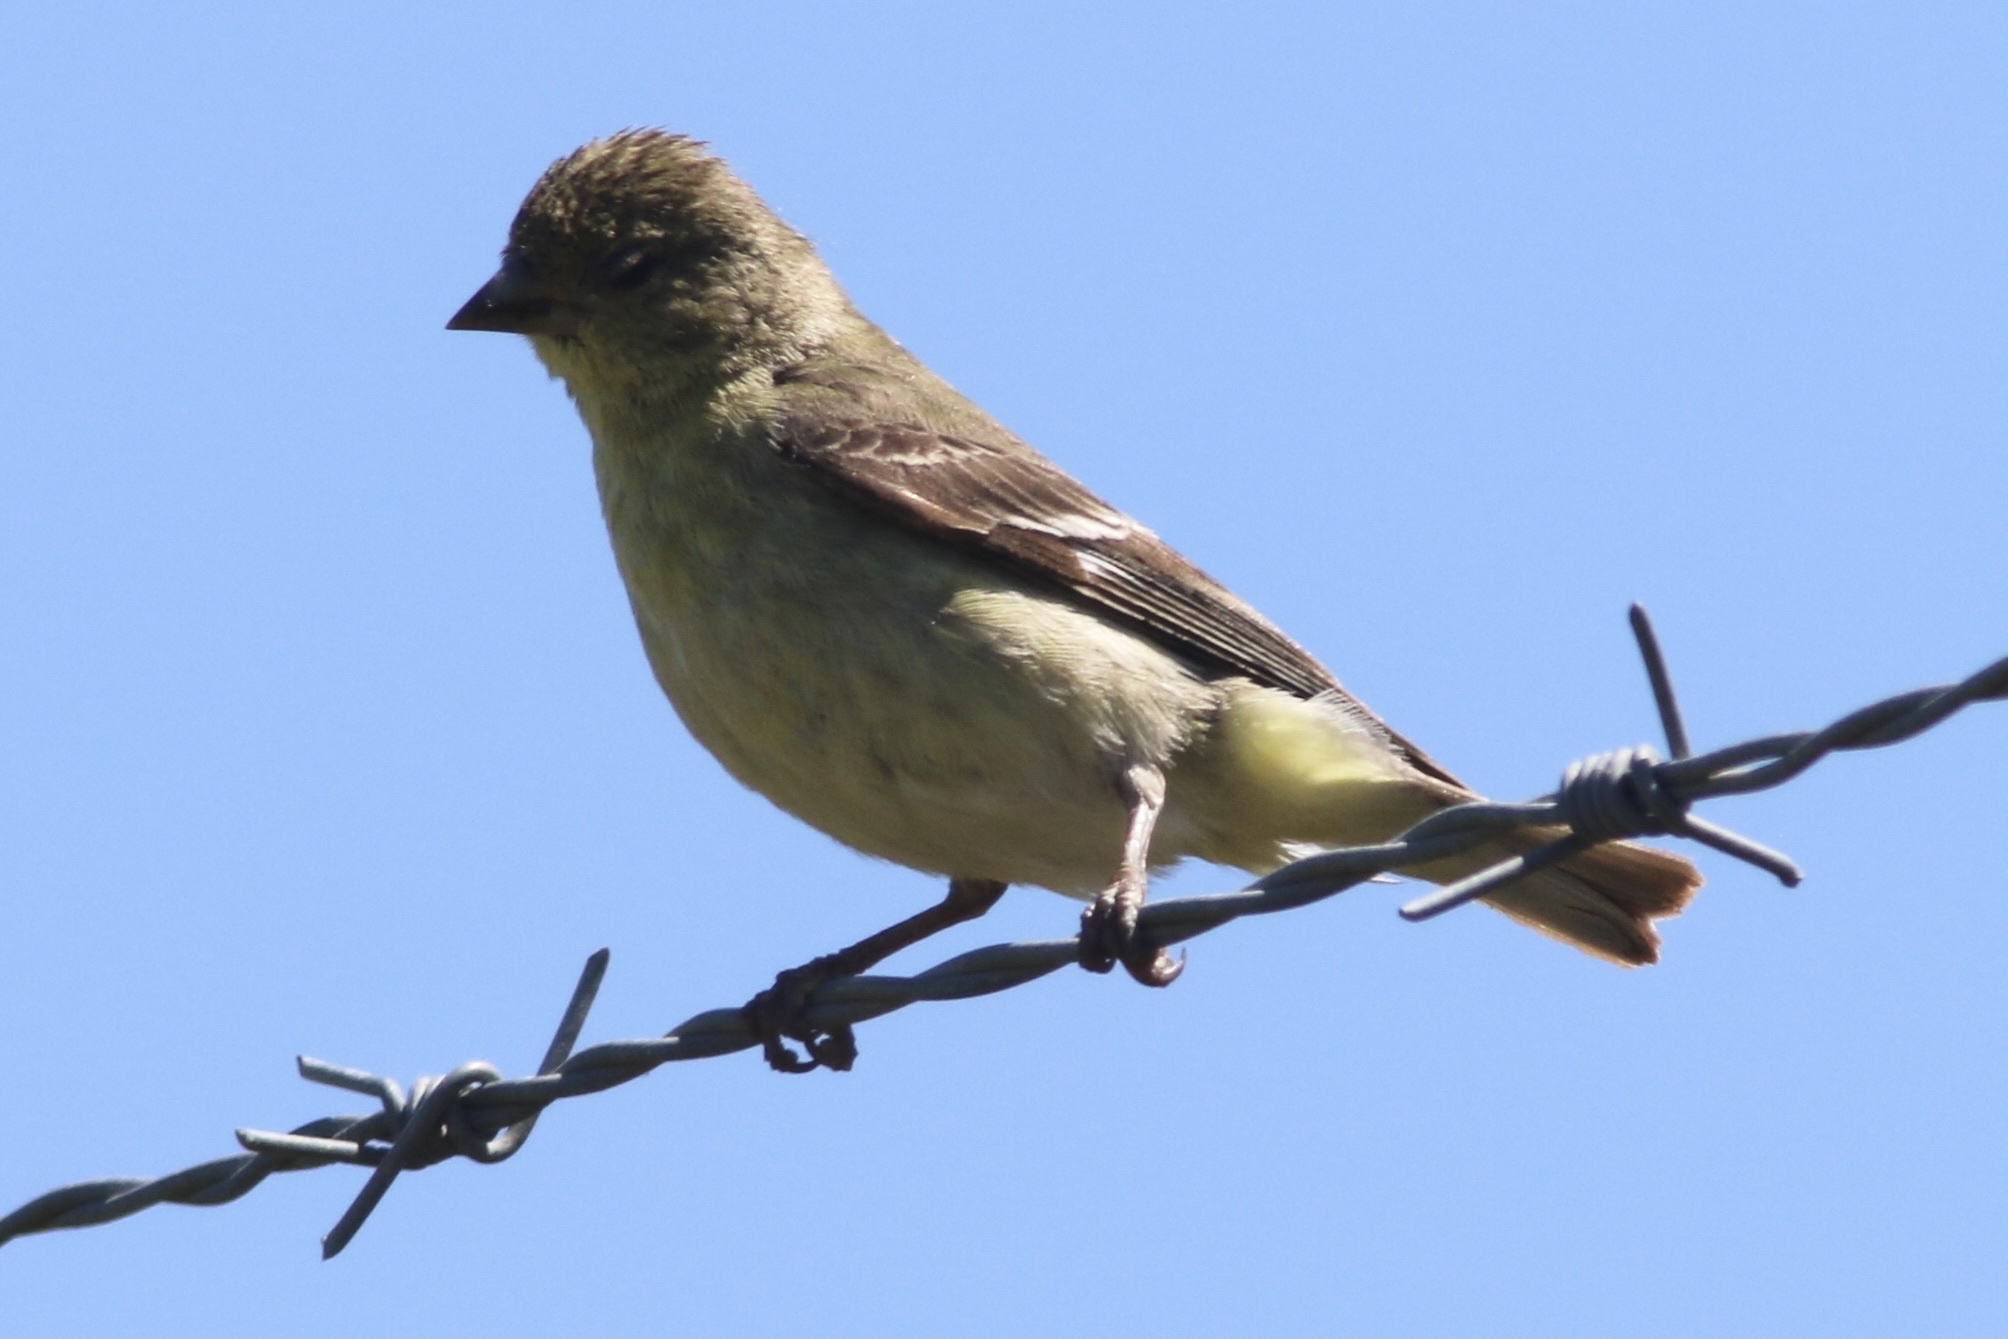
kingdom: Animalia
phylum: Chordata
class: Aves
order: Passeriformes
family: Fringillidae
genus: Spinus
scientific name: Spinus psaltria
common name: Lesser goldfinch
